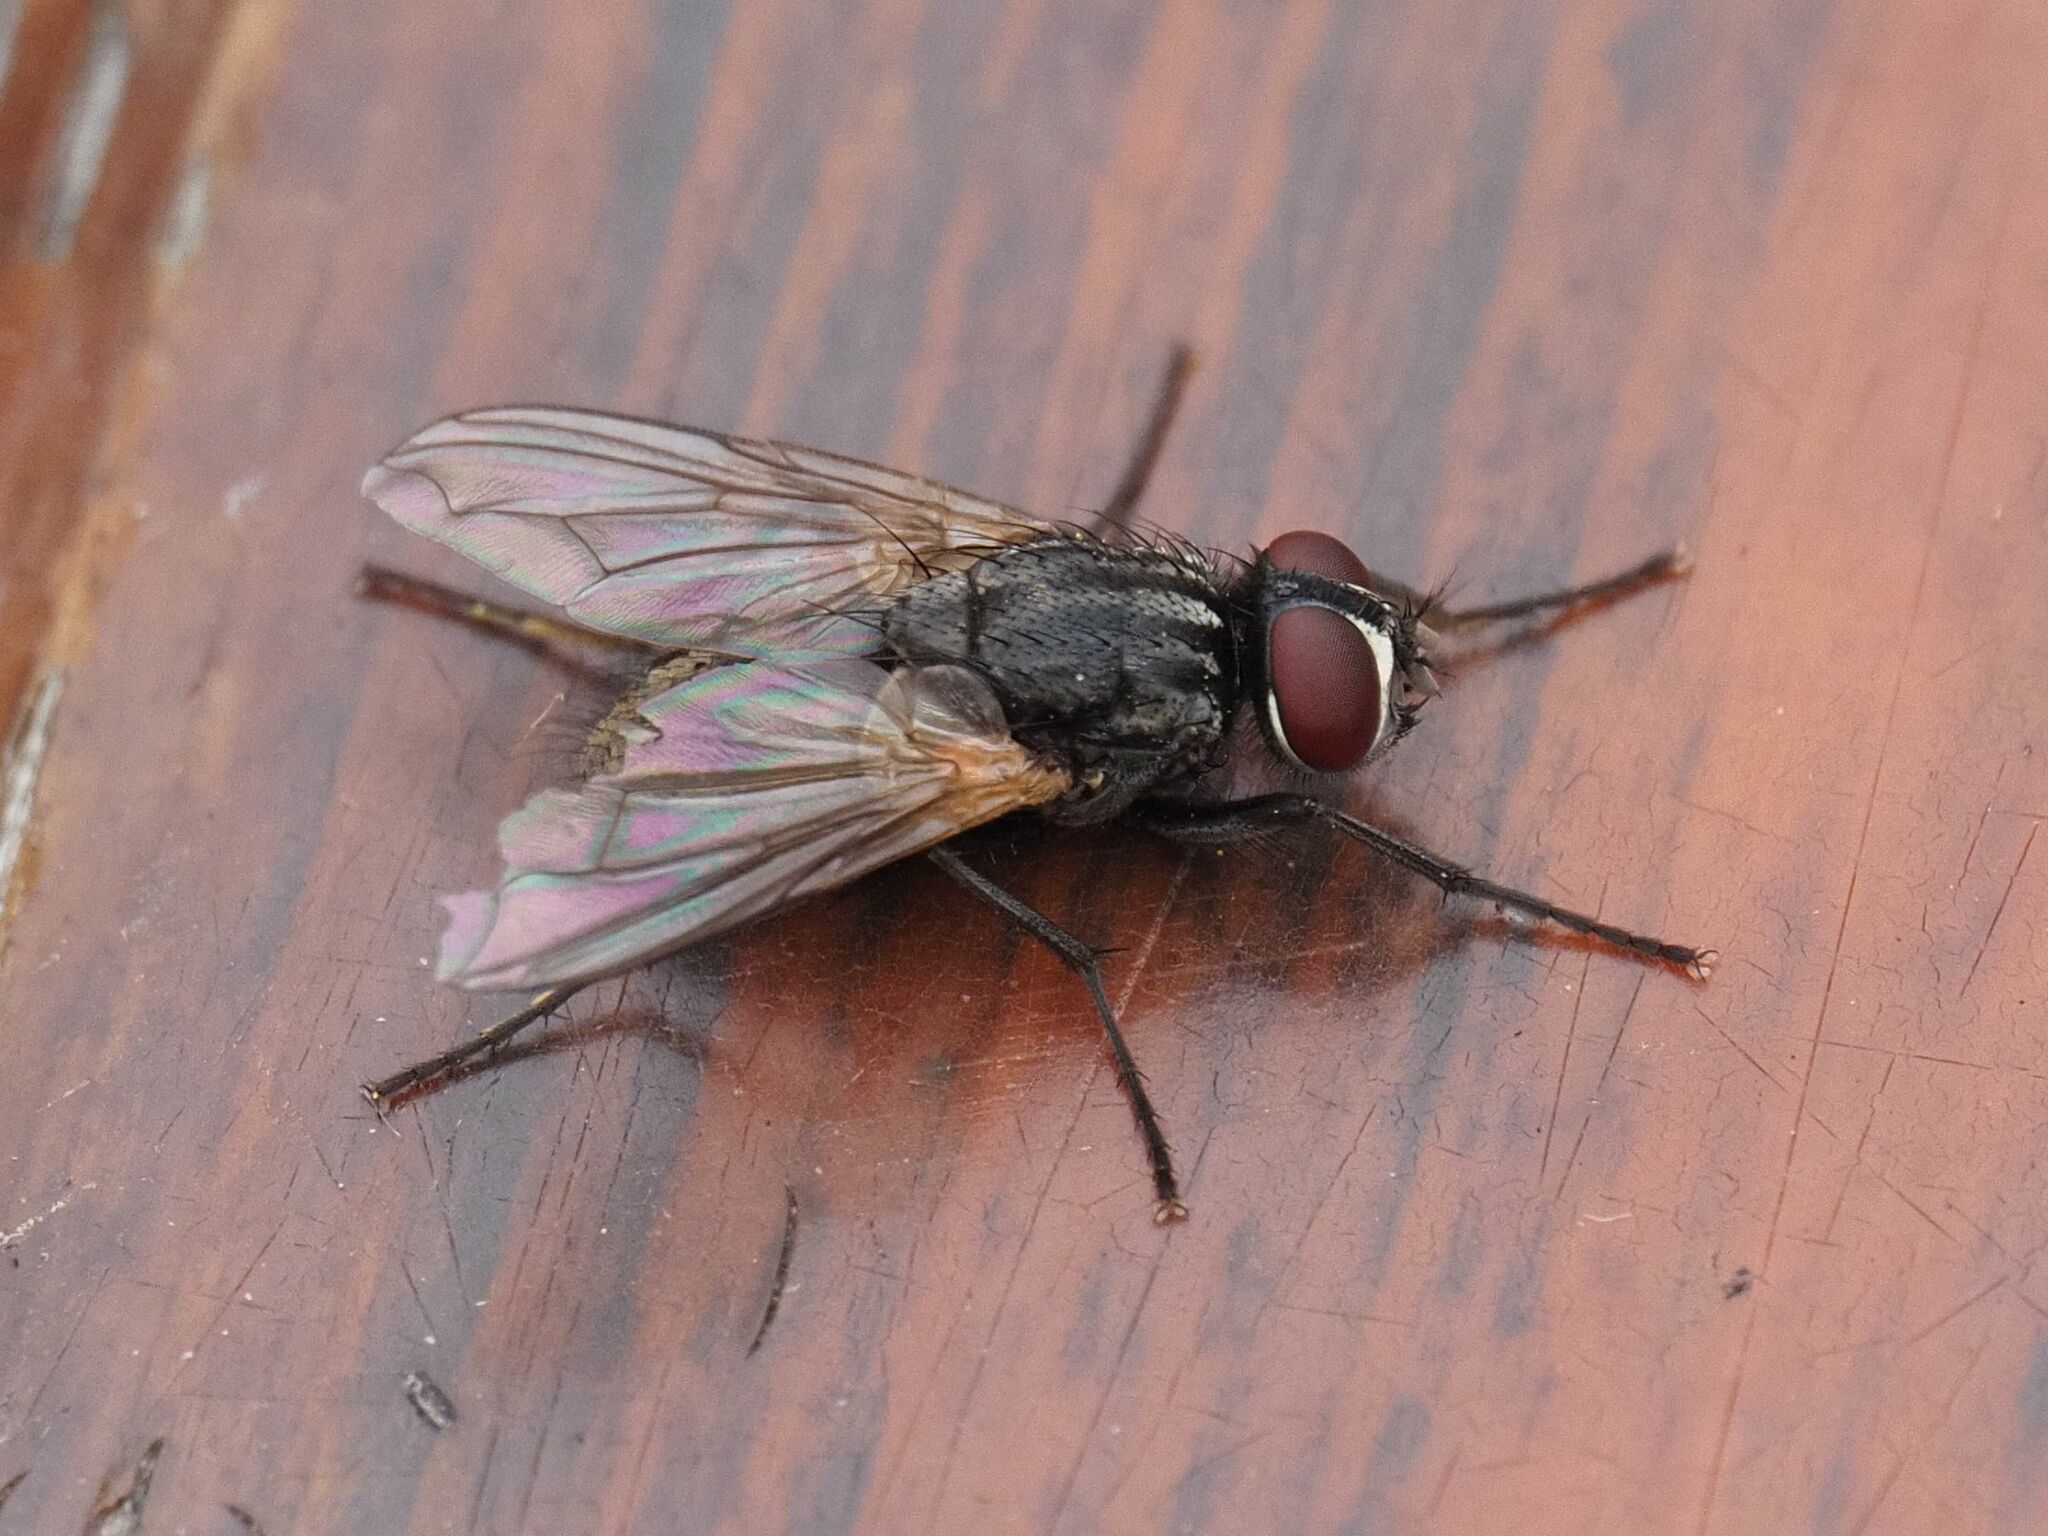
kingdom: Animalia
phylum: Arthropoda
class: Insecta
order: Diptera
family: Muscidae
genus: Musca
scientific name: Musca domestica
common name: House fly
